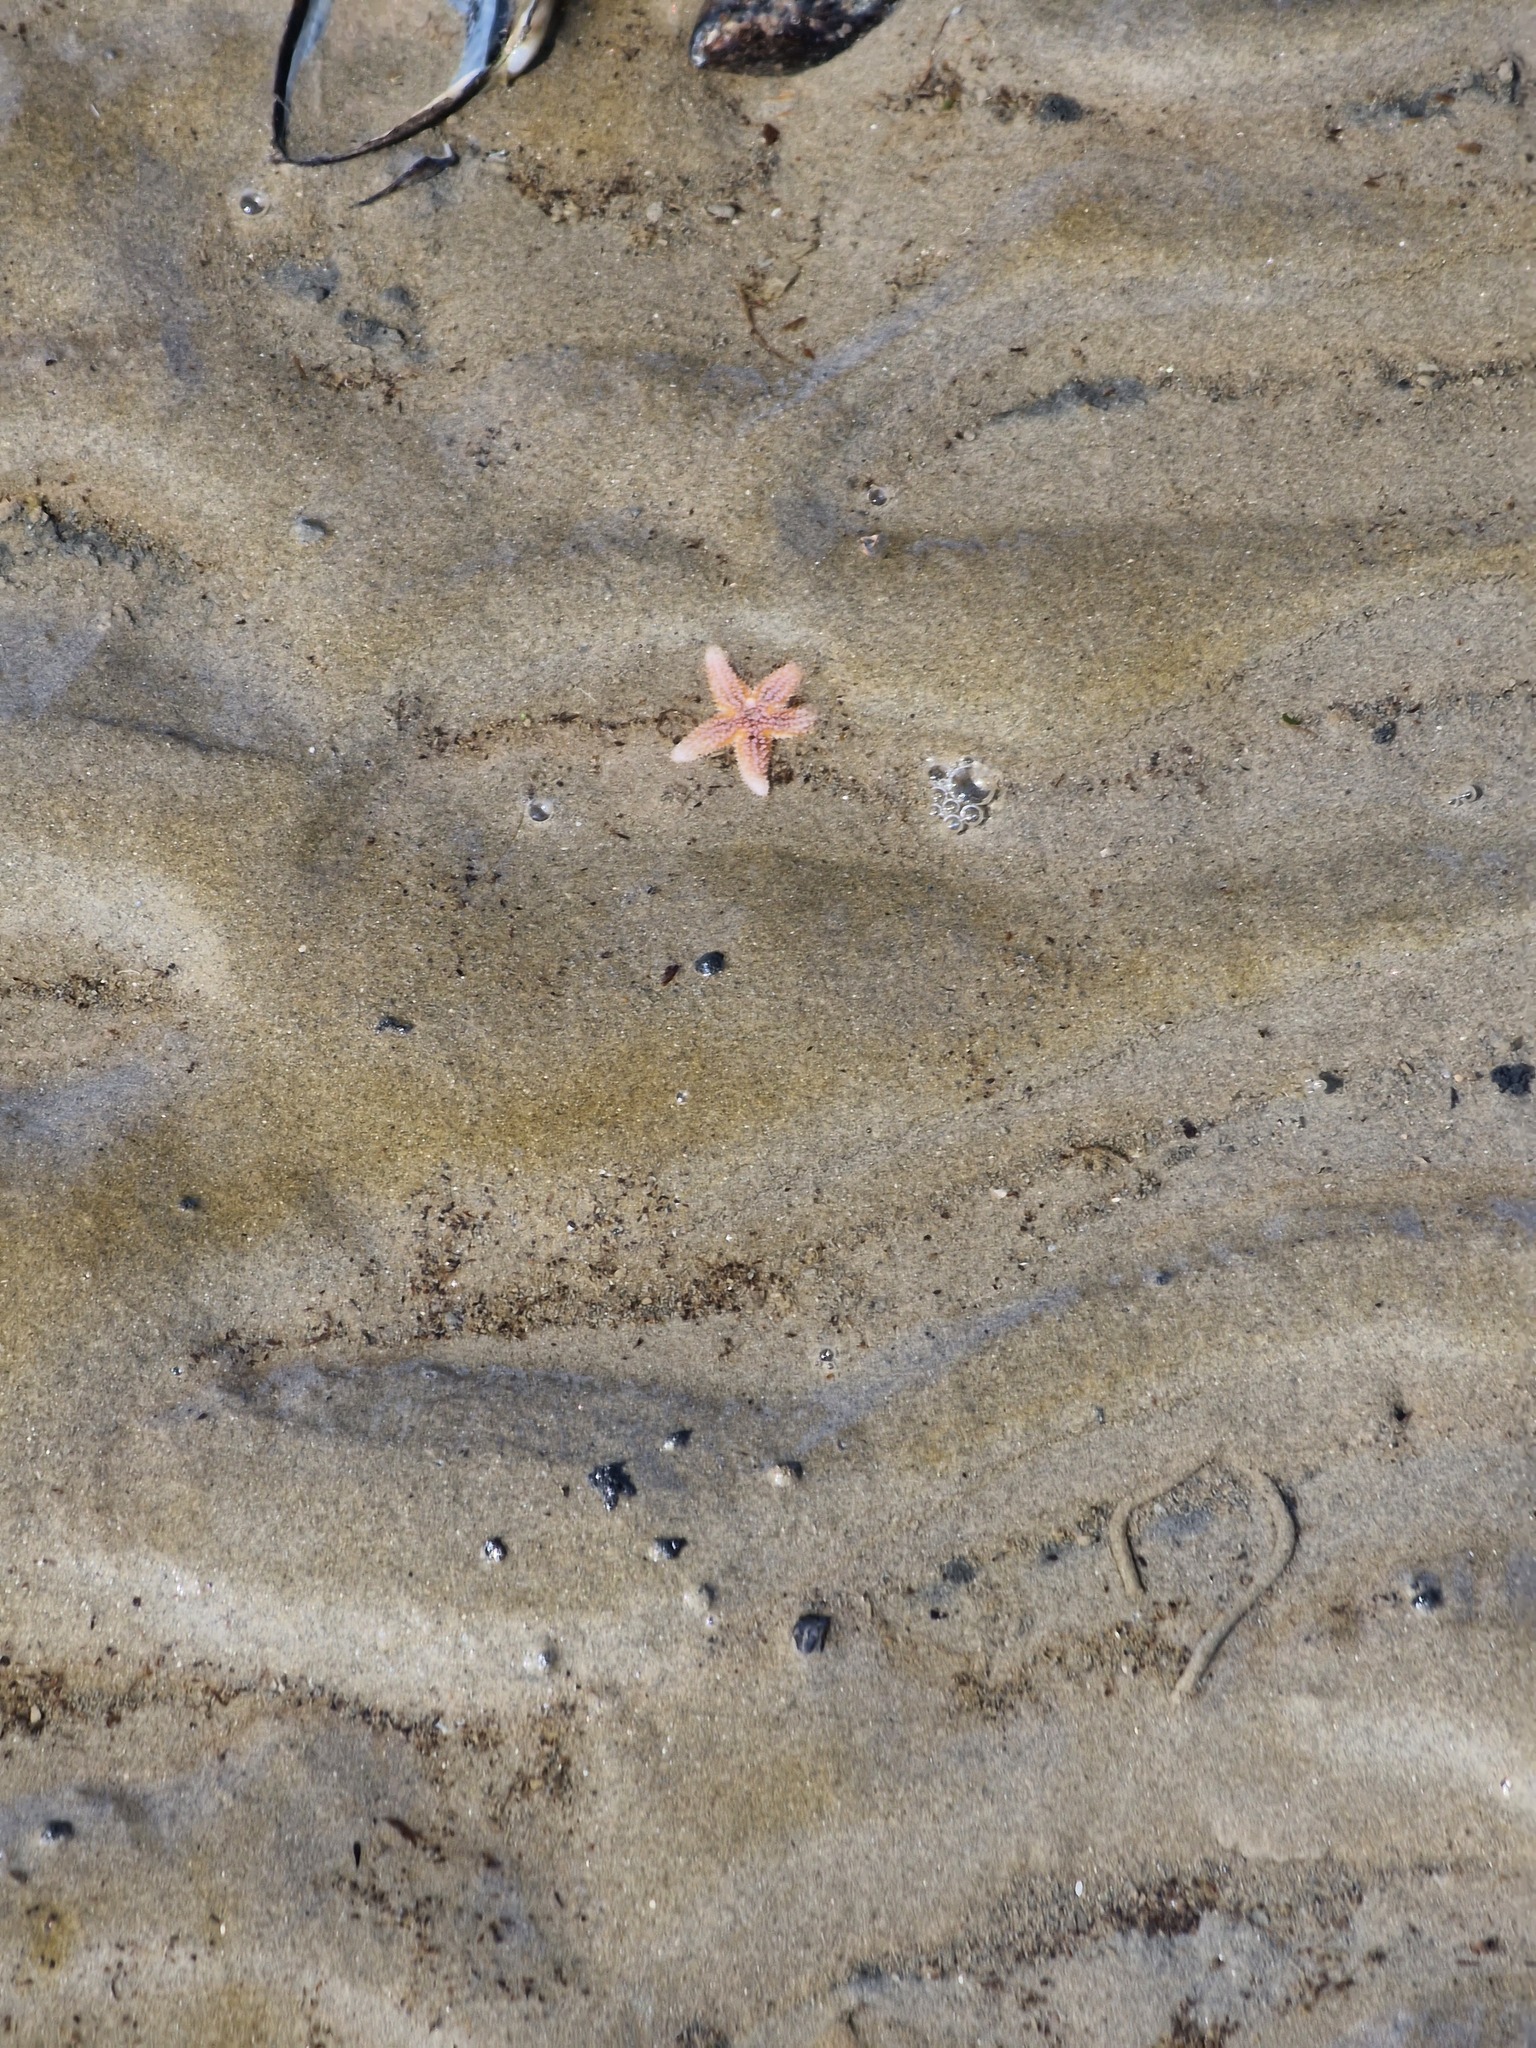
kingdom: Animalia
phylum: Echinodermata
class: Asteroidea
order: Forcipulatida
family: Asteriidae
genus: Asterias
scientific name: Asterias rubens
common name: Common starfish
